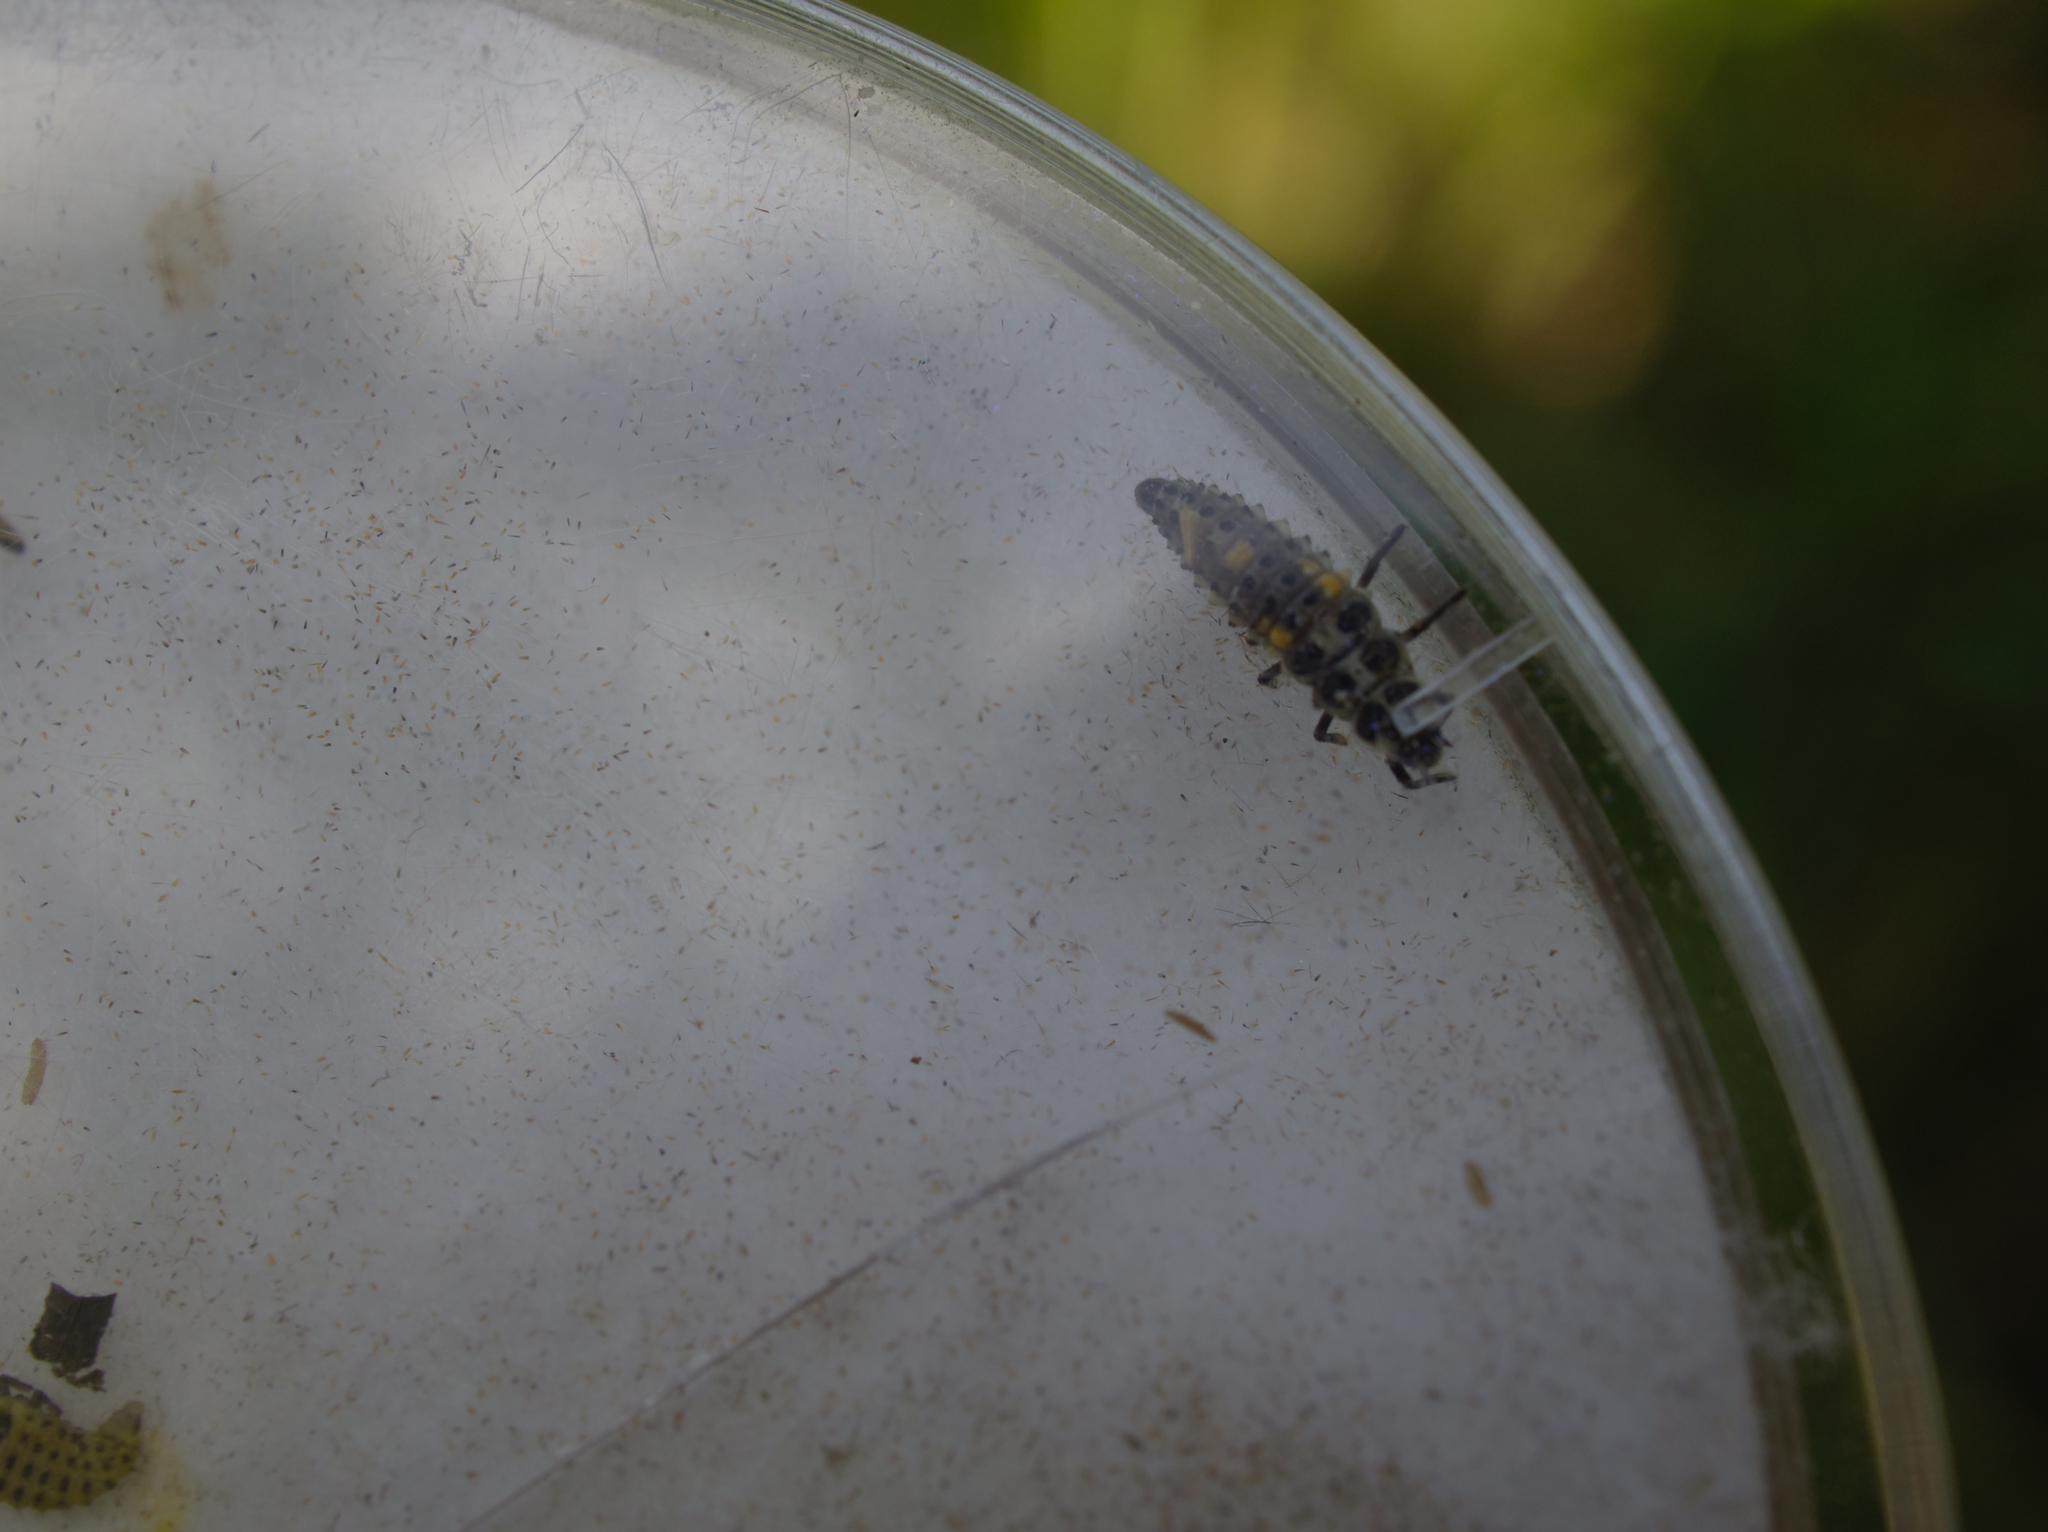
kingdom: Animalia
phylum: Arthropoda
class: Insecta
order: Coleoptera
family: Coccinellidae
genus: Adalia
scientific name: Adalia decempunctata
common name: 10-spot ladybird
